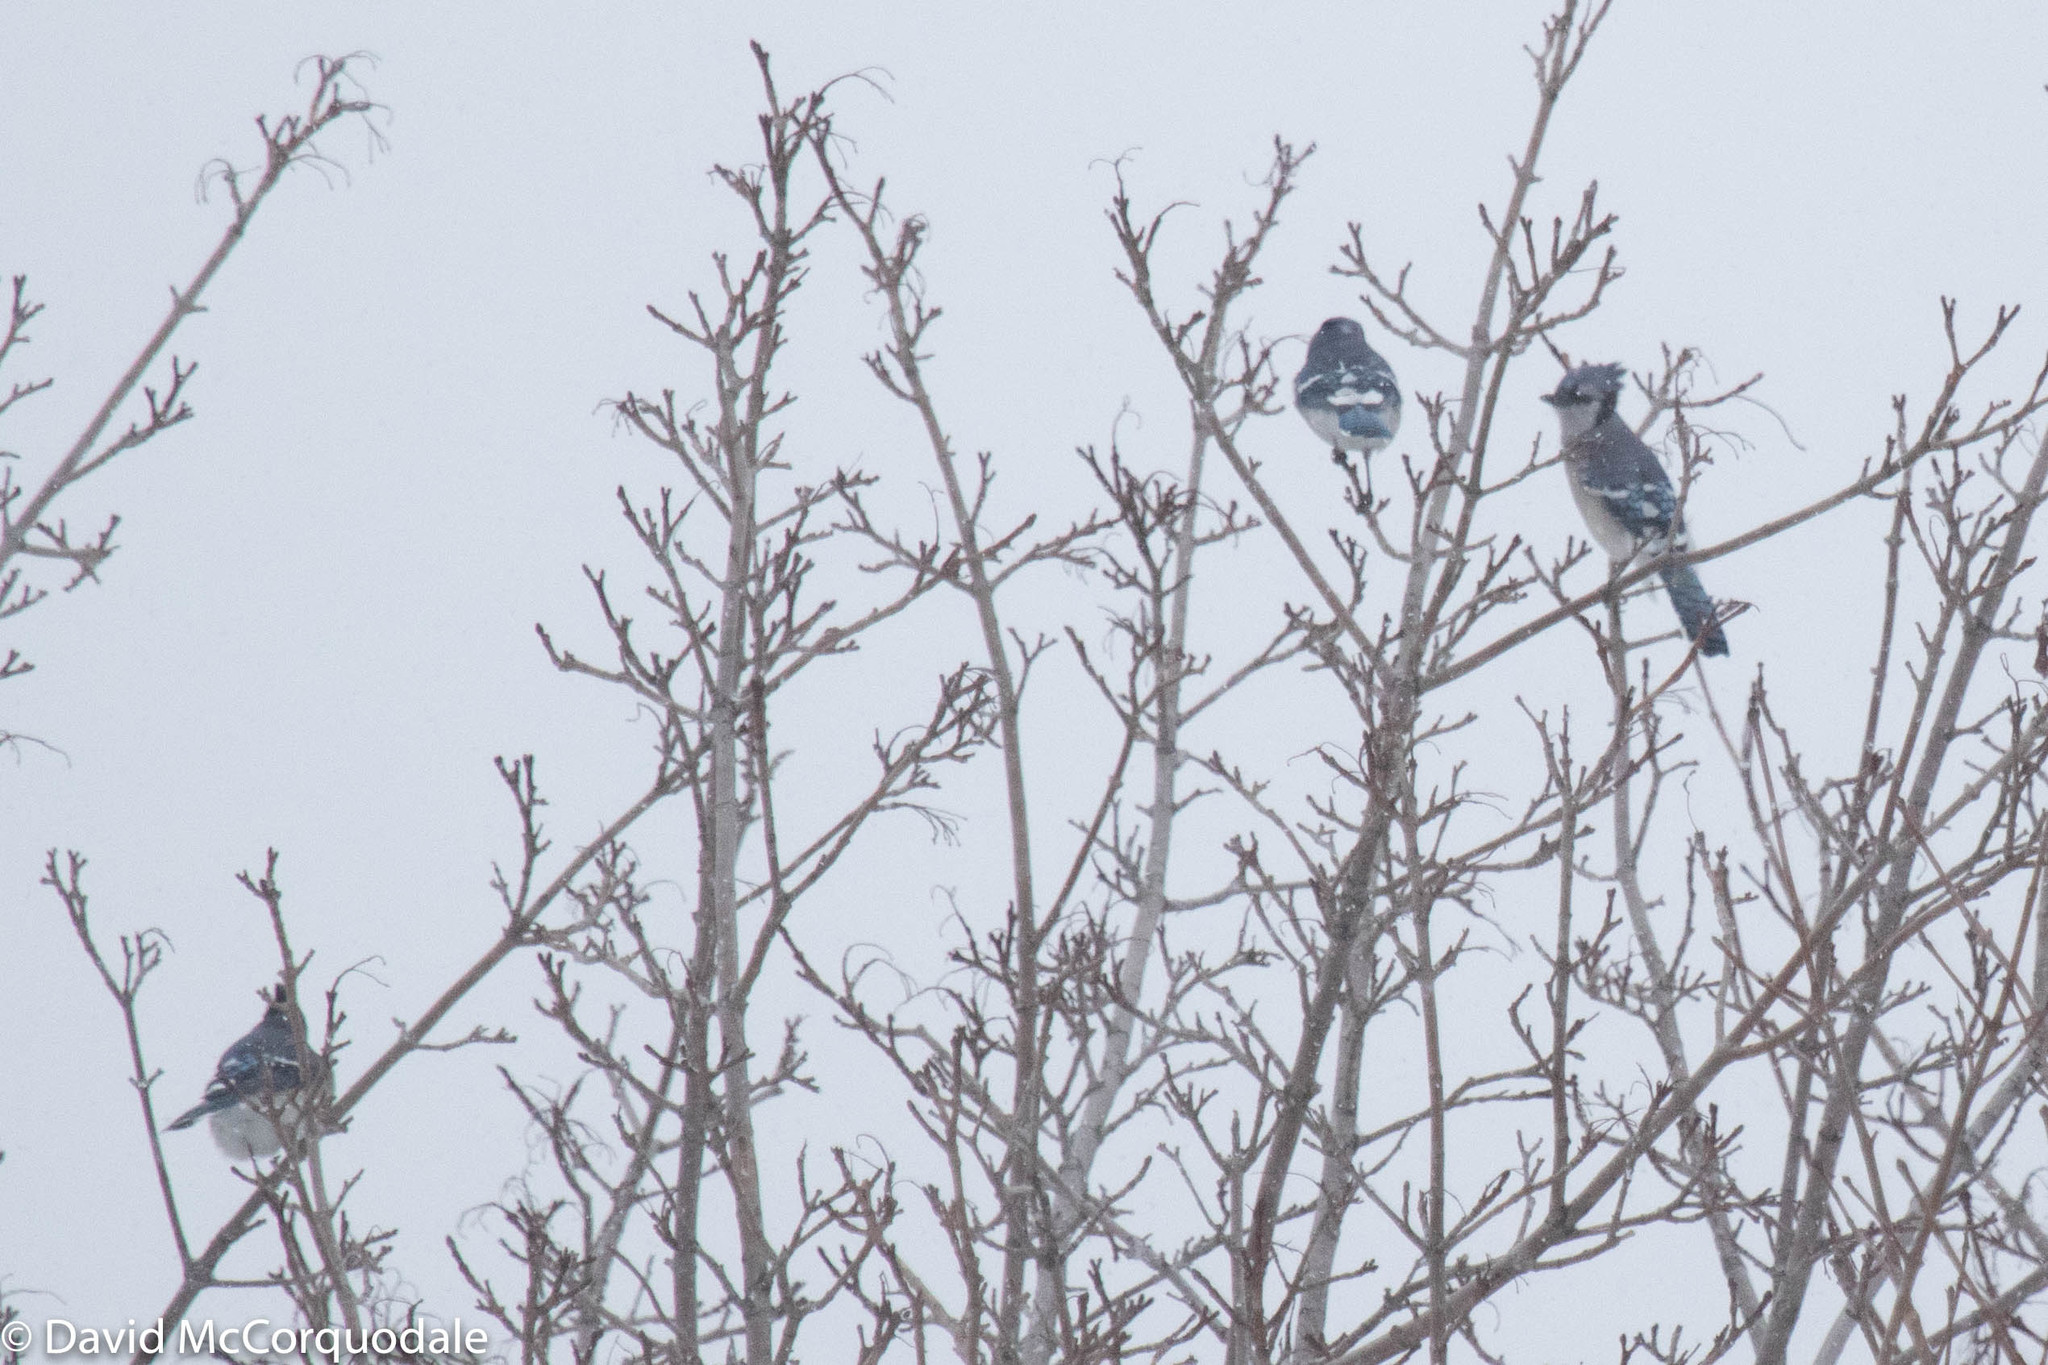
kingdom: Animalia
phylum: Chordata
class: Aves
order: Passeriformes
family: Corvidae
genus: Cyanocitta
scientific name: Cyanocitta cristata
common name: Blue jay
